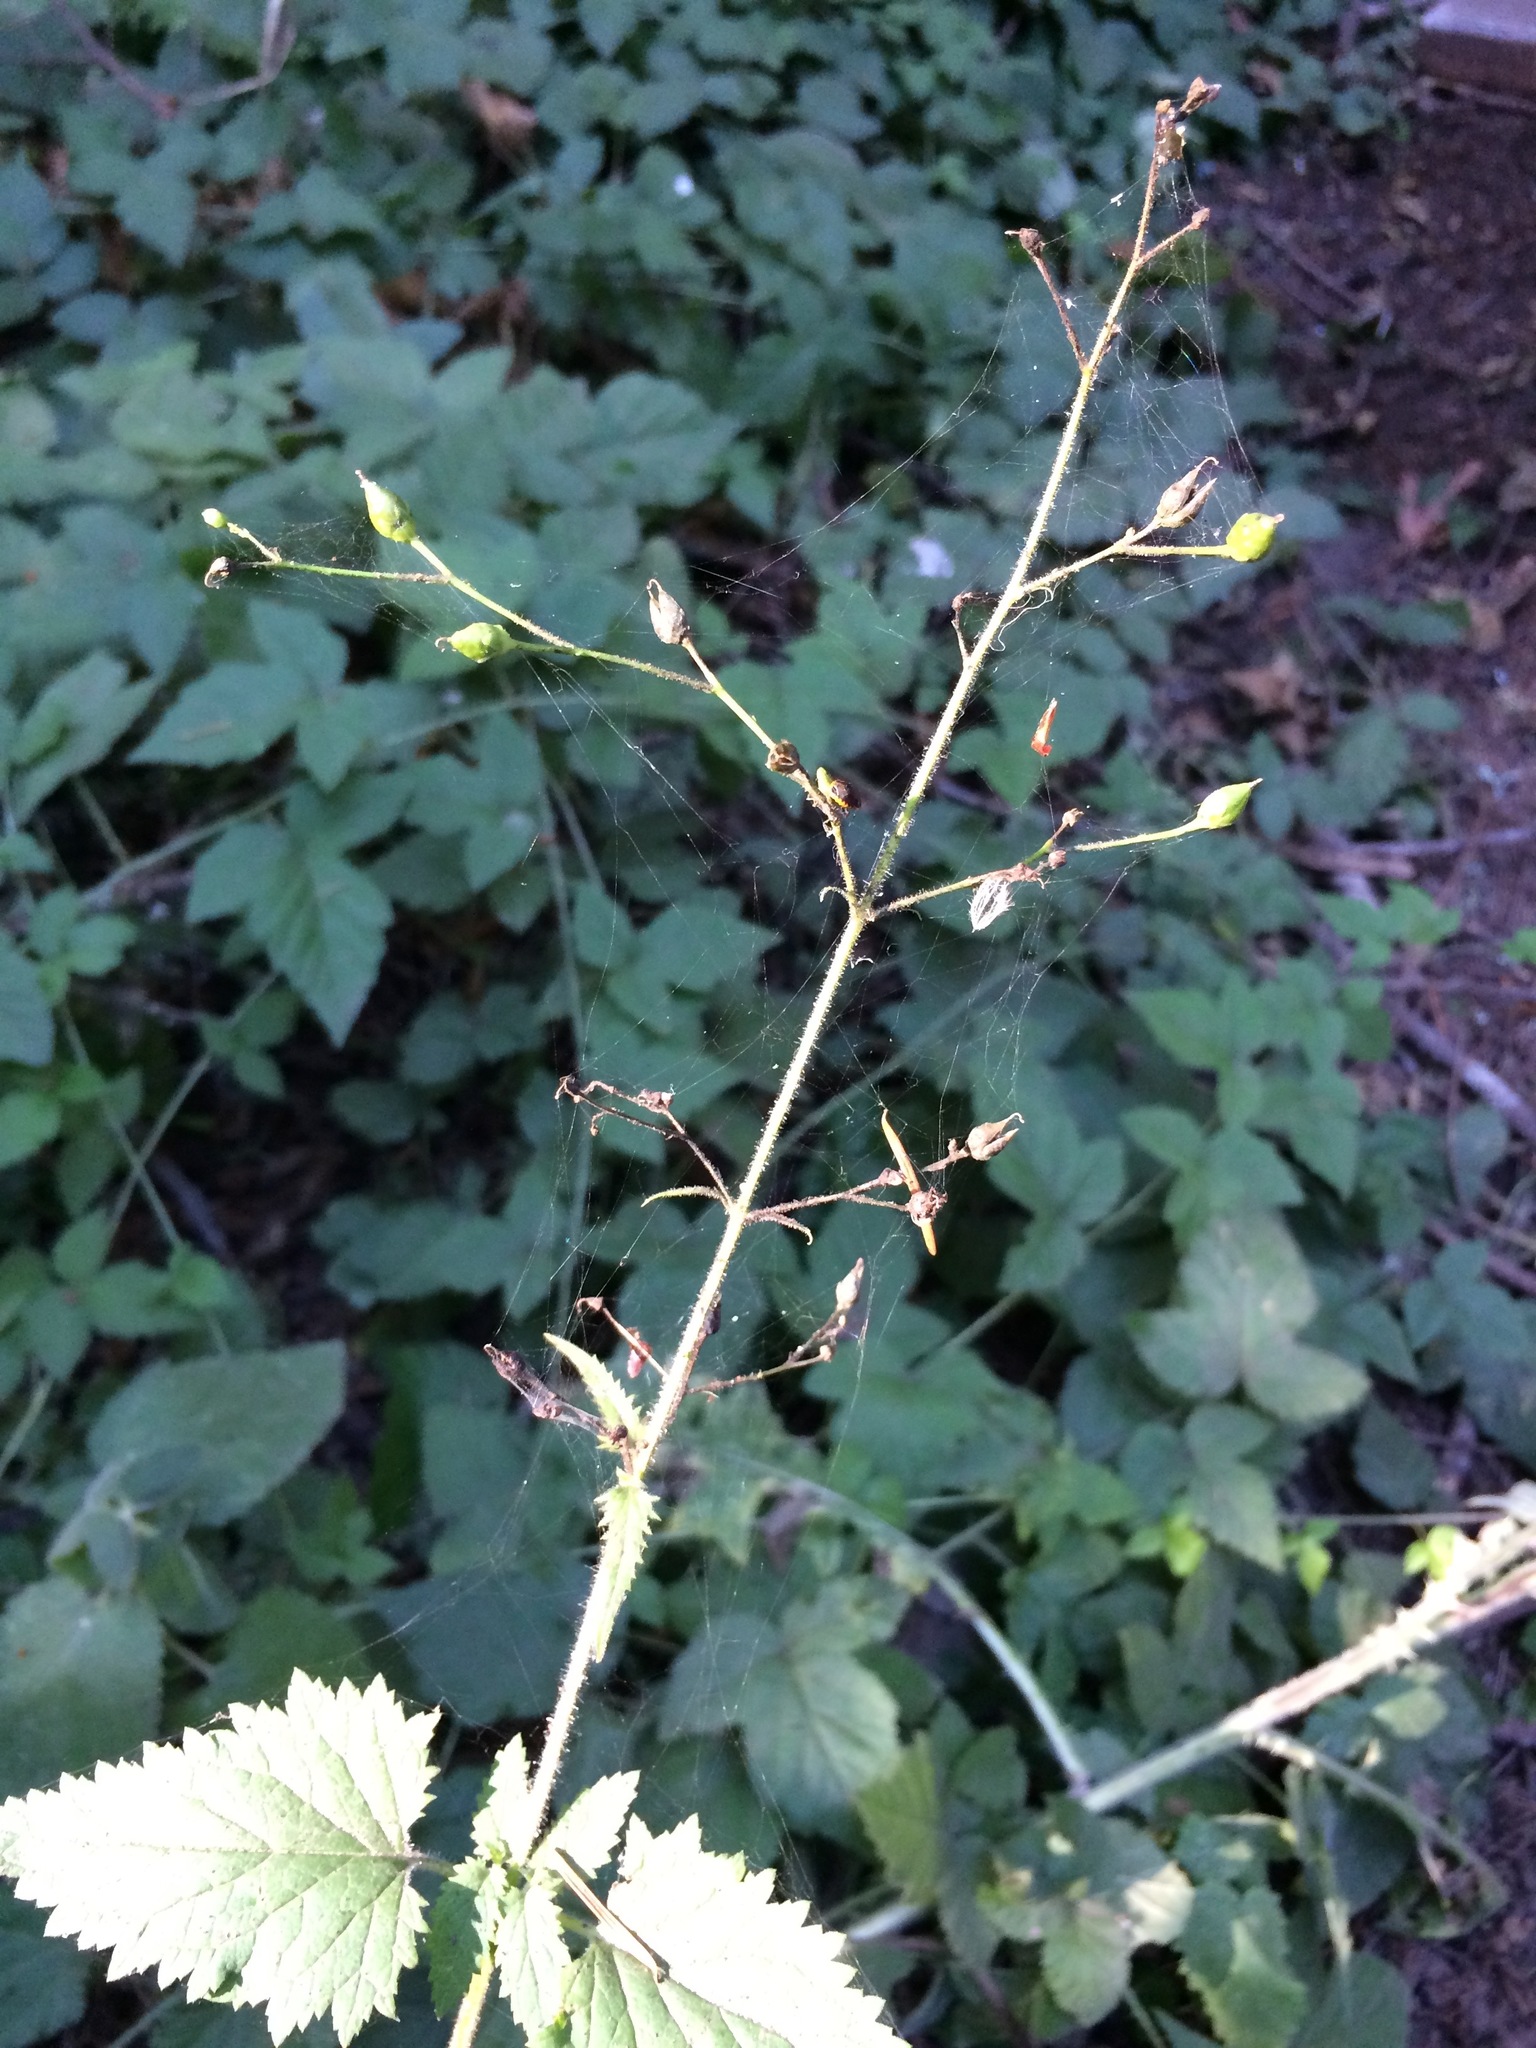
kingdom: Plantae
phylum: Tracheophyta
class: Magnoliopsida
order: Lamiales
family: Scrophulariaceae
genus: Scrophularia
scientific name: Scrophularia californica
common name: California figwort
